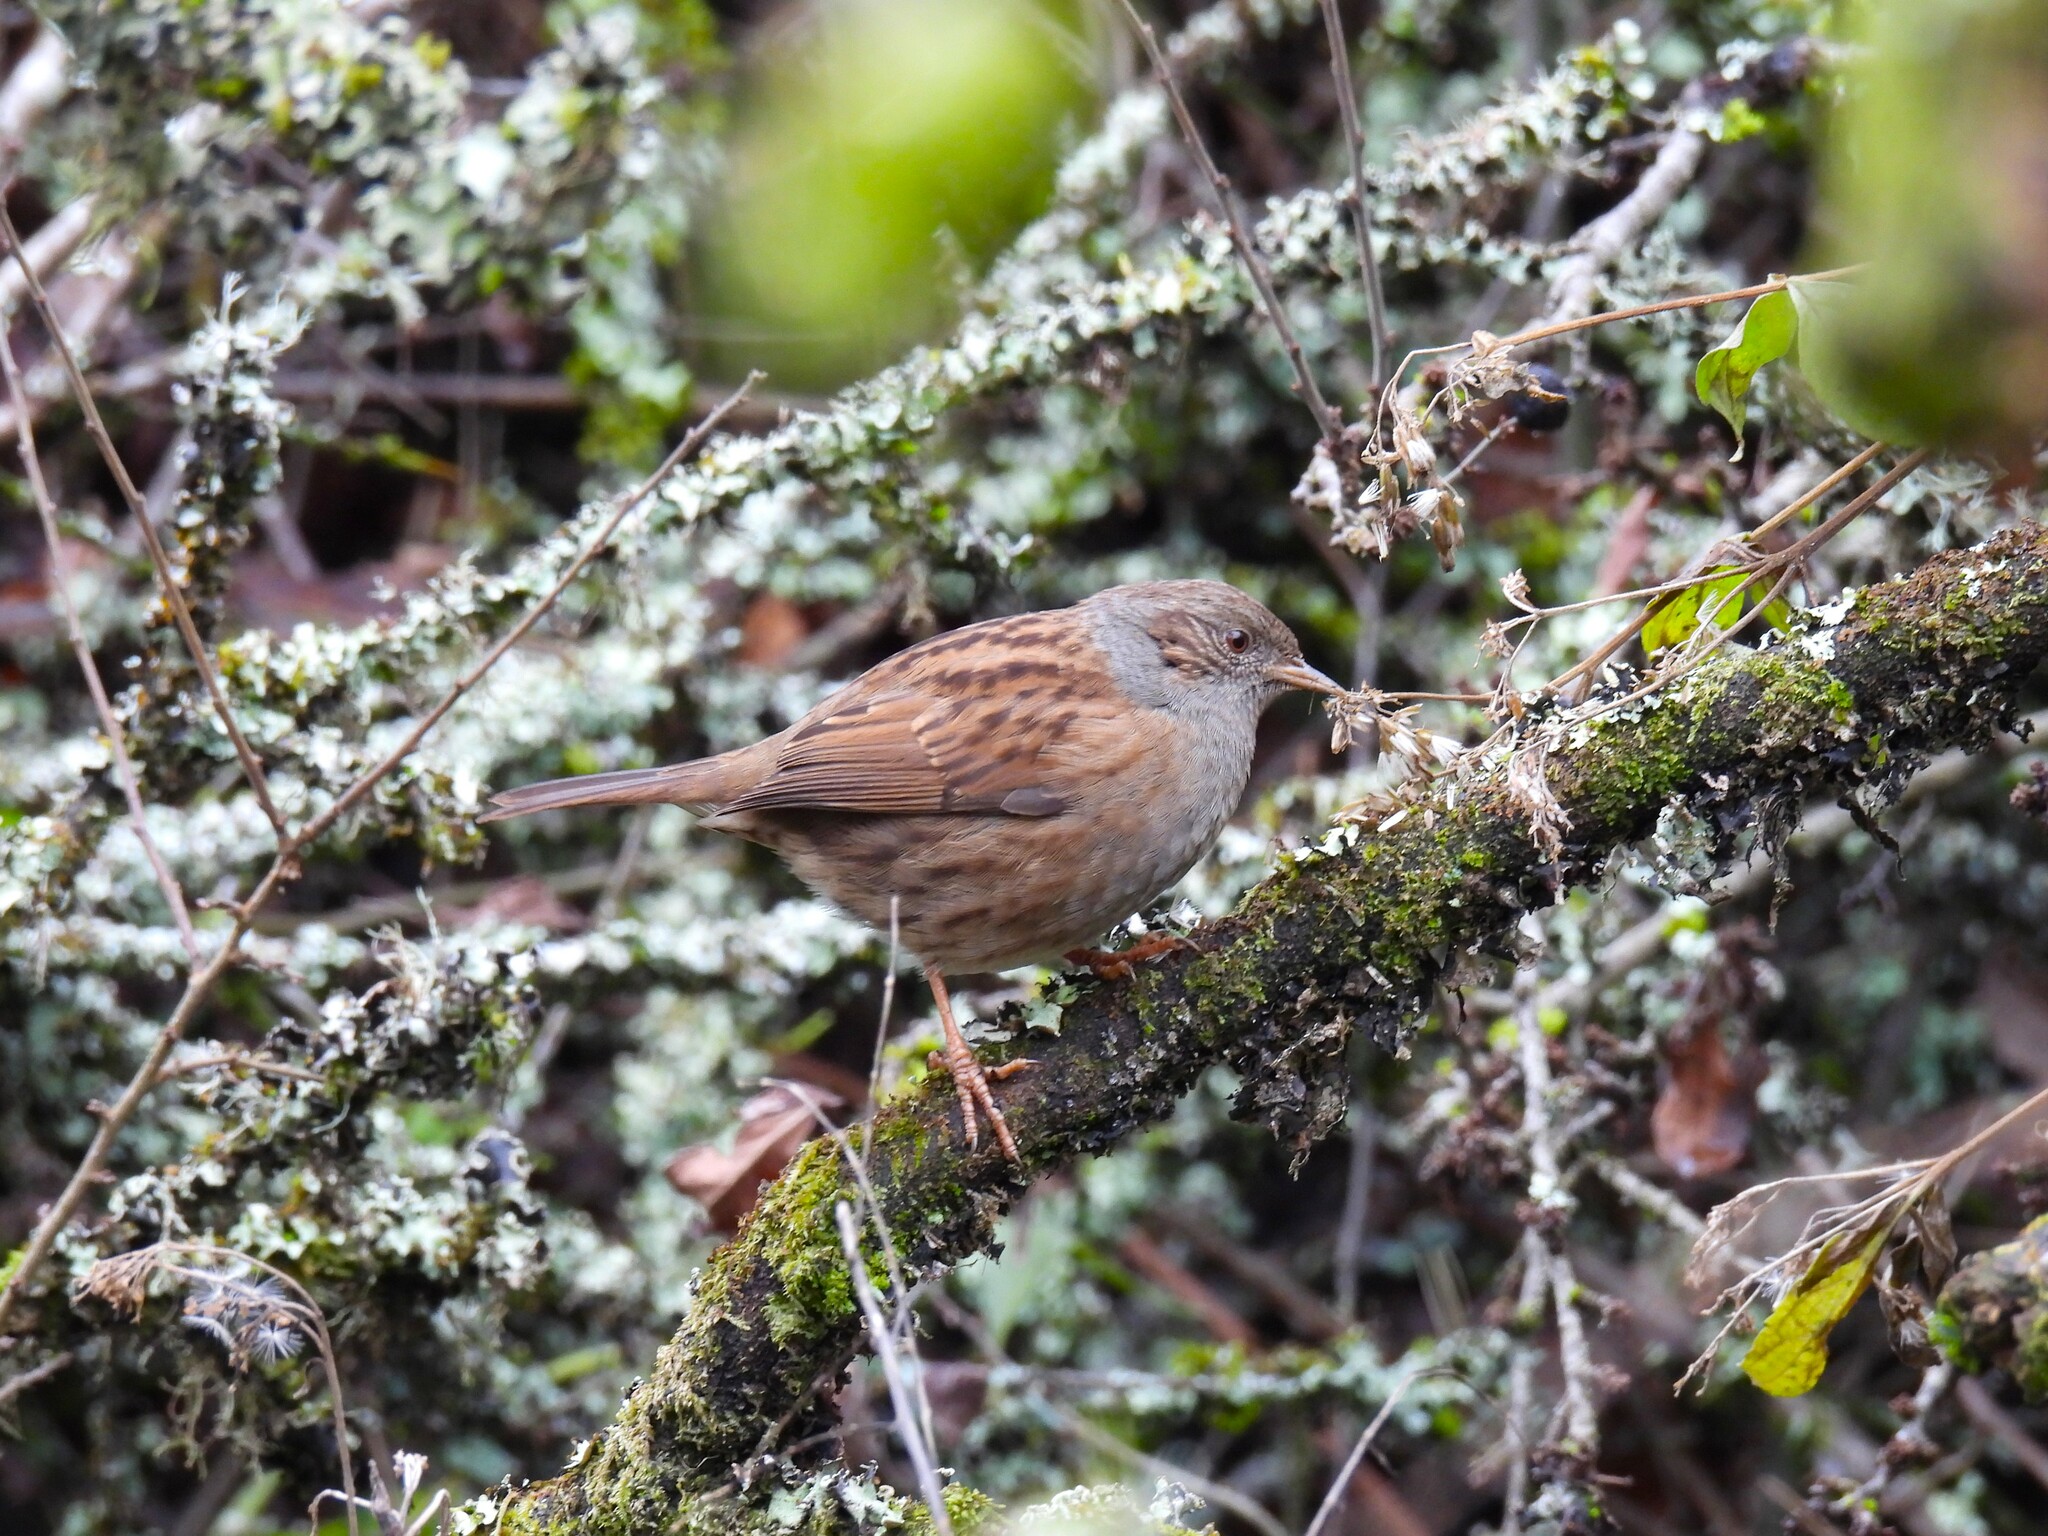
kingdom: Animalia
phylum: Chordata
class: Aves
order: Passeriformes
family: Prunellidae
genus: Prunella
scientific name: Prunella modularis
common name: Dunnock
